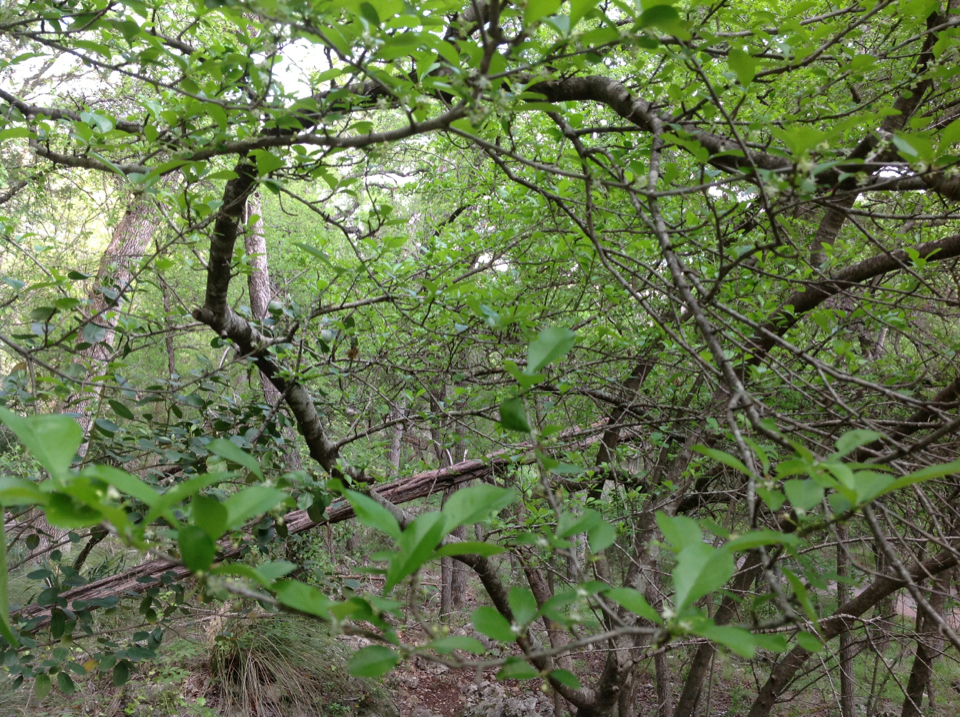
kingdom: Plantae
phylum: Tracheophyta
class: Magnoliopsida
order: Aquifoliales
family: Aquifoliaceae
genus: Ilex
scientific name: Ilex decidua
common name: Possum-haw
